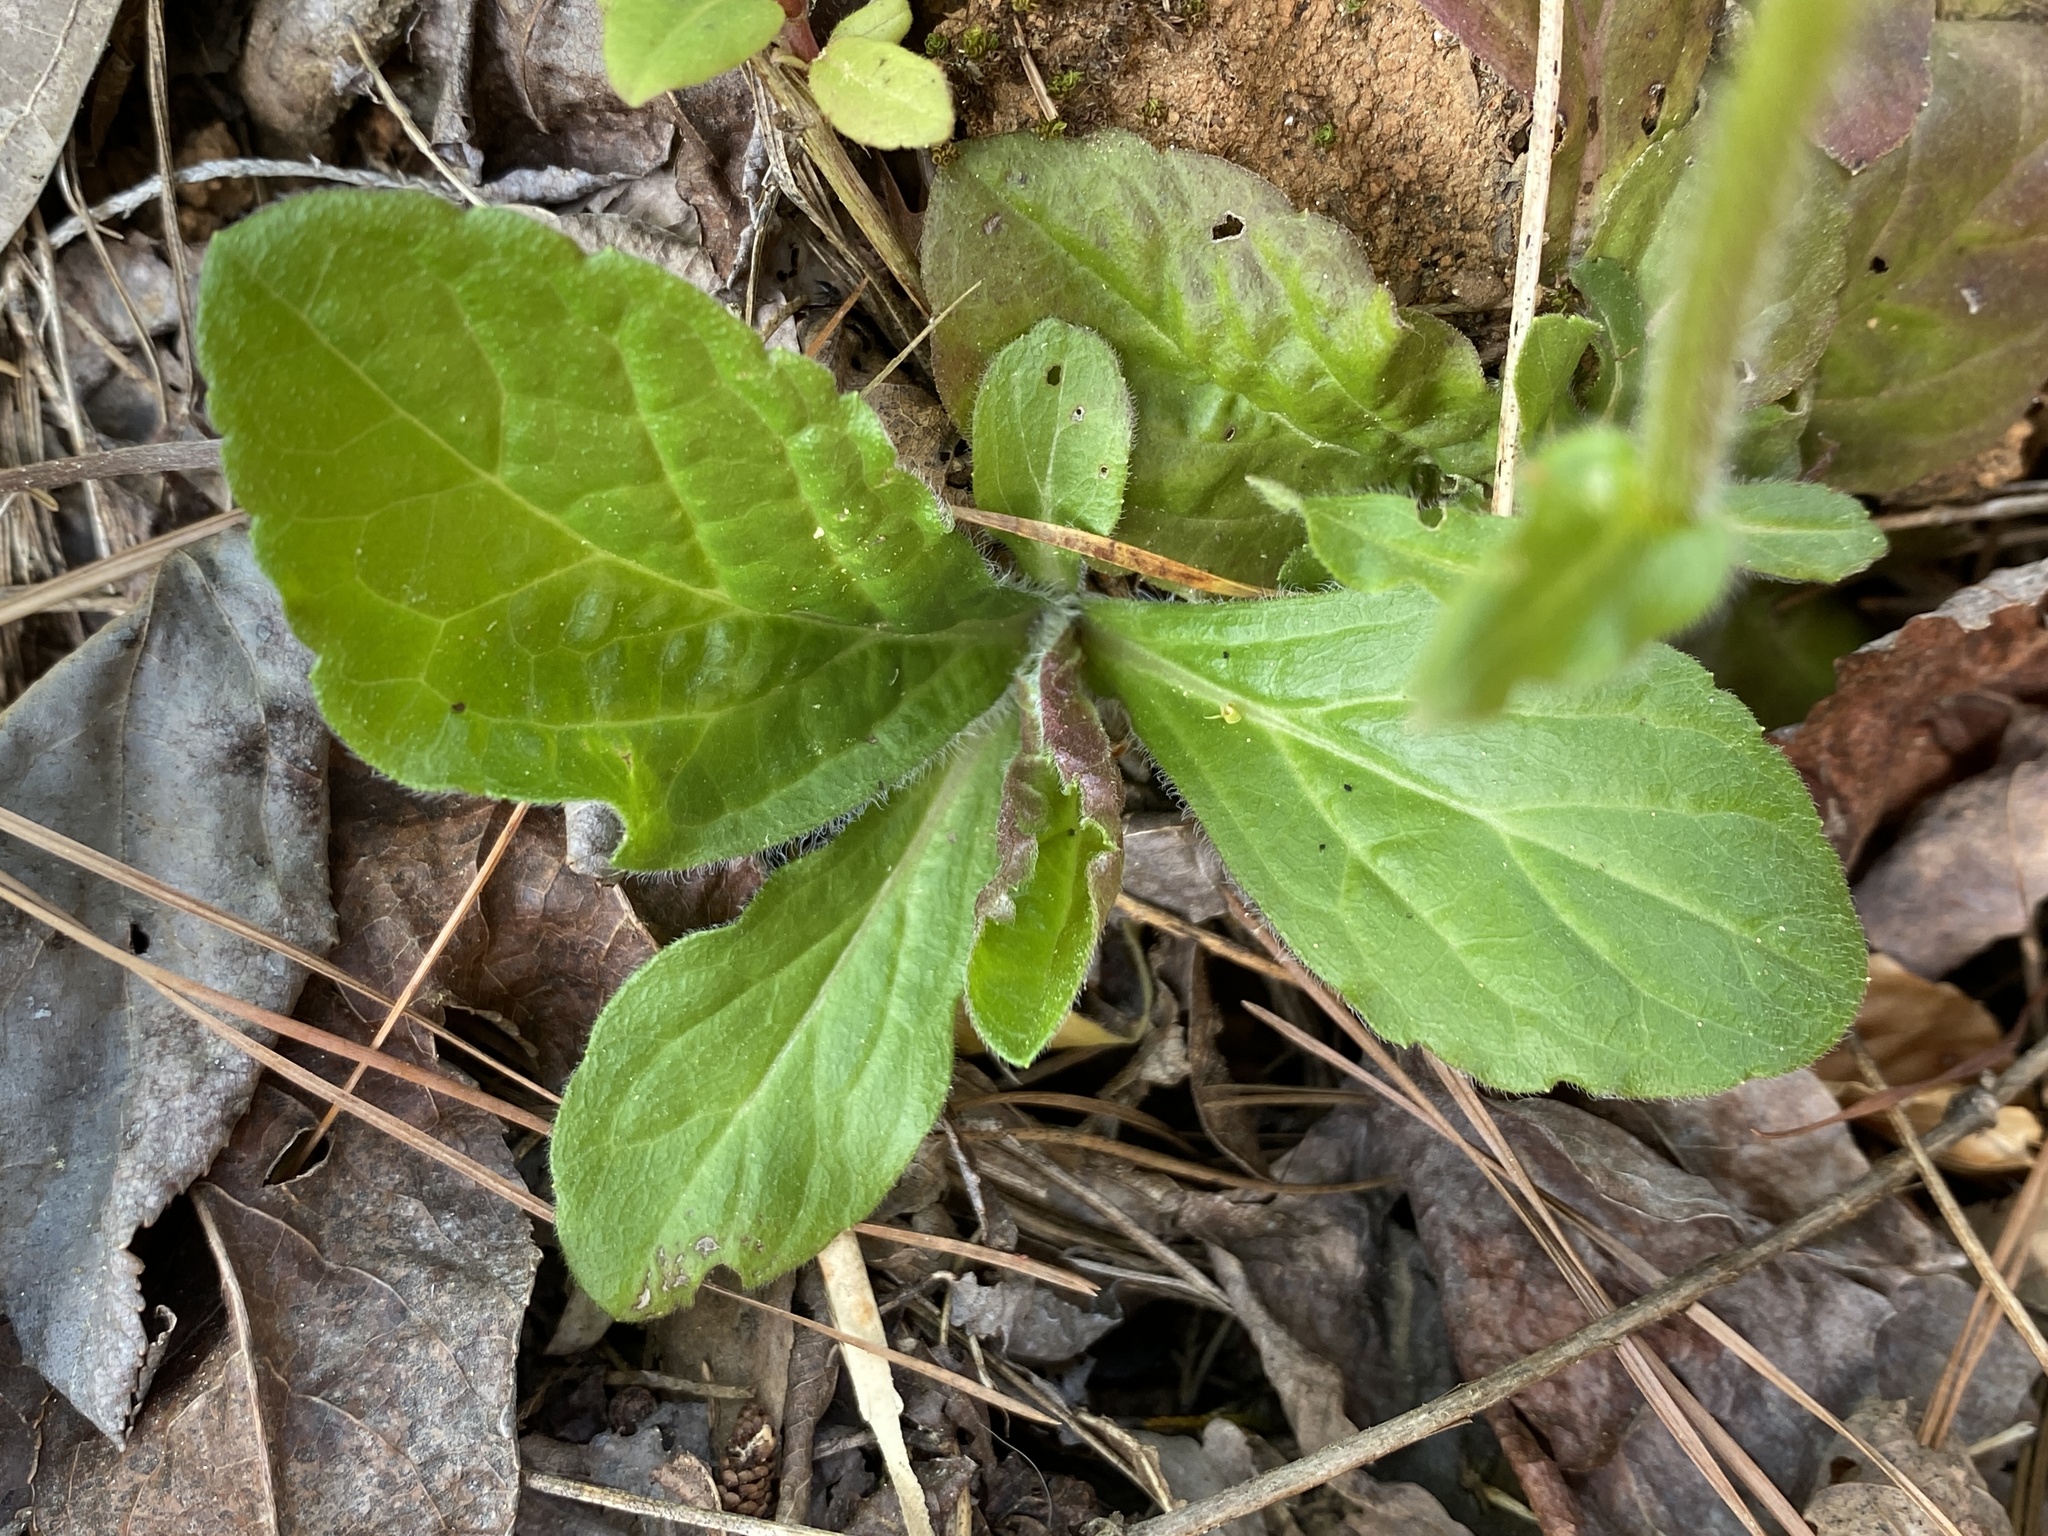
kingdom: Plantae
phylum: Tracheophyta
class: Magnoliopsida
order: Asterales
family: Asteraceae
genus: Erigeron
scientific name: Erigeron pulchellus
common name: Hairy fleabane
